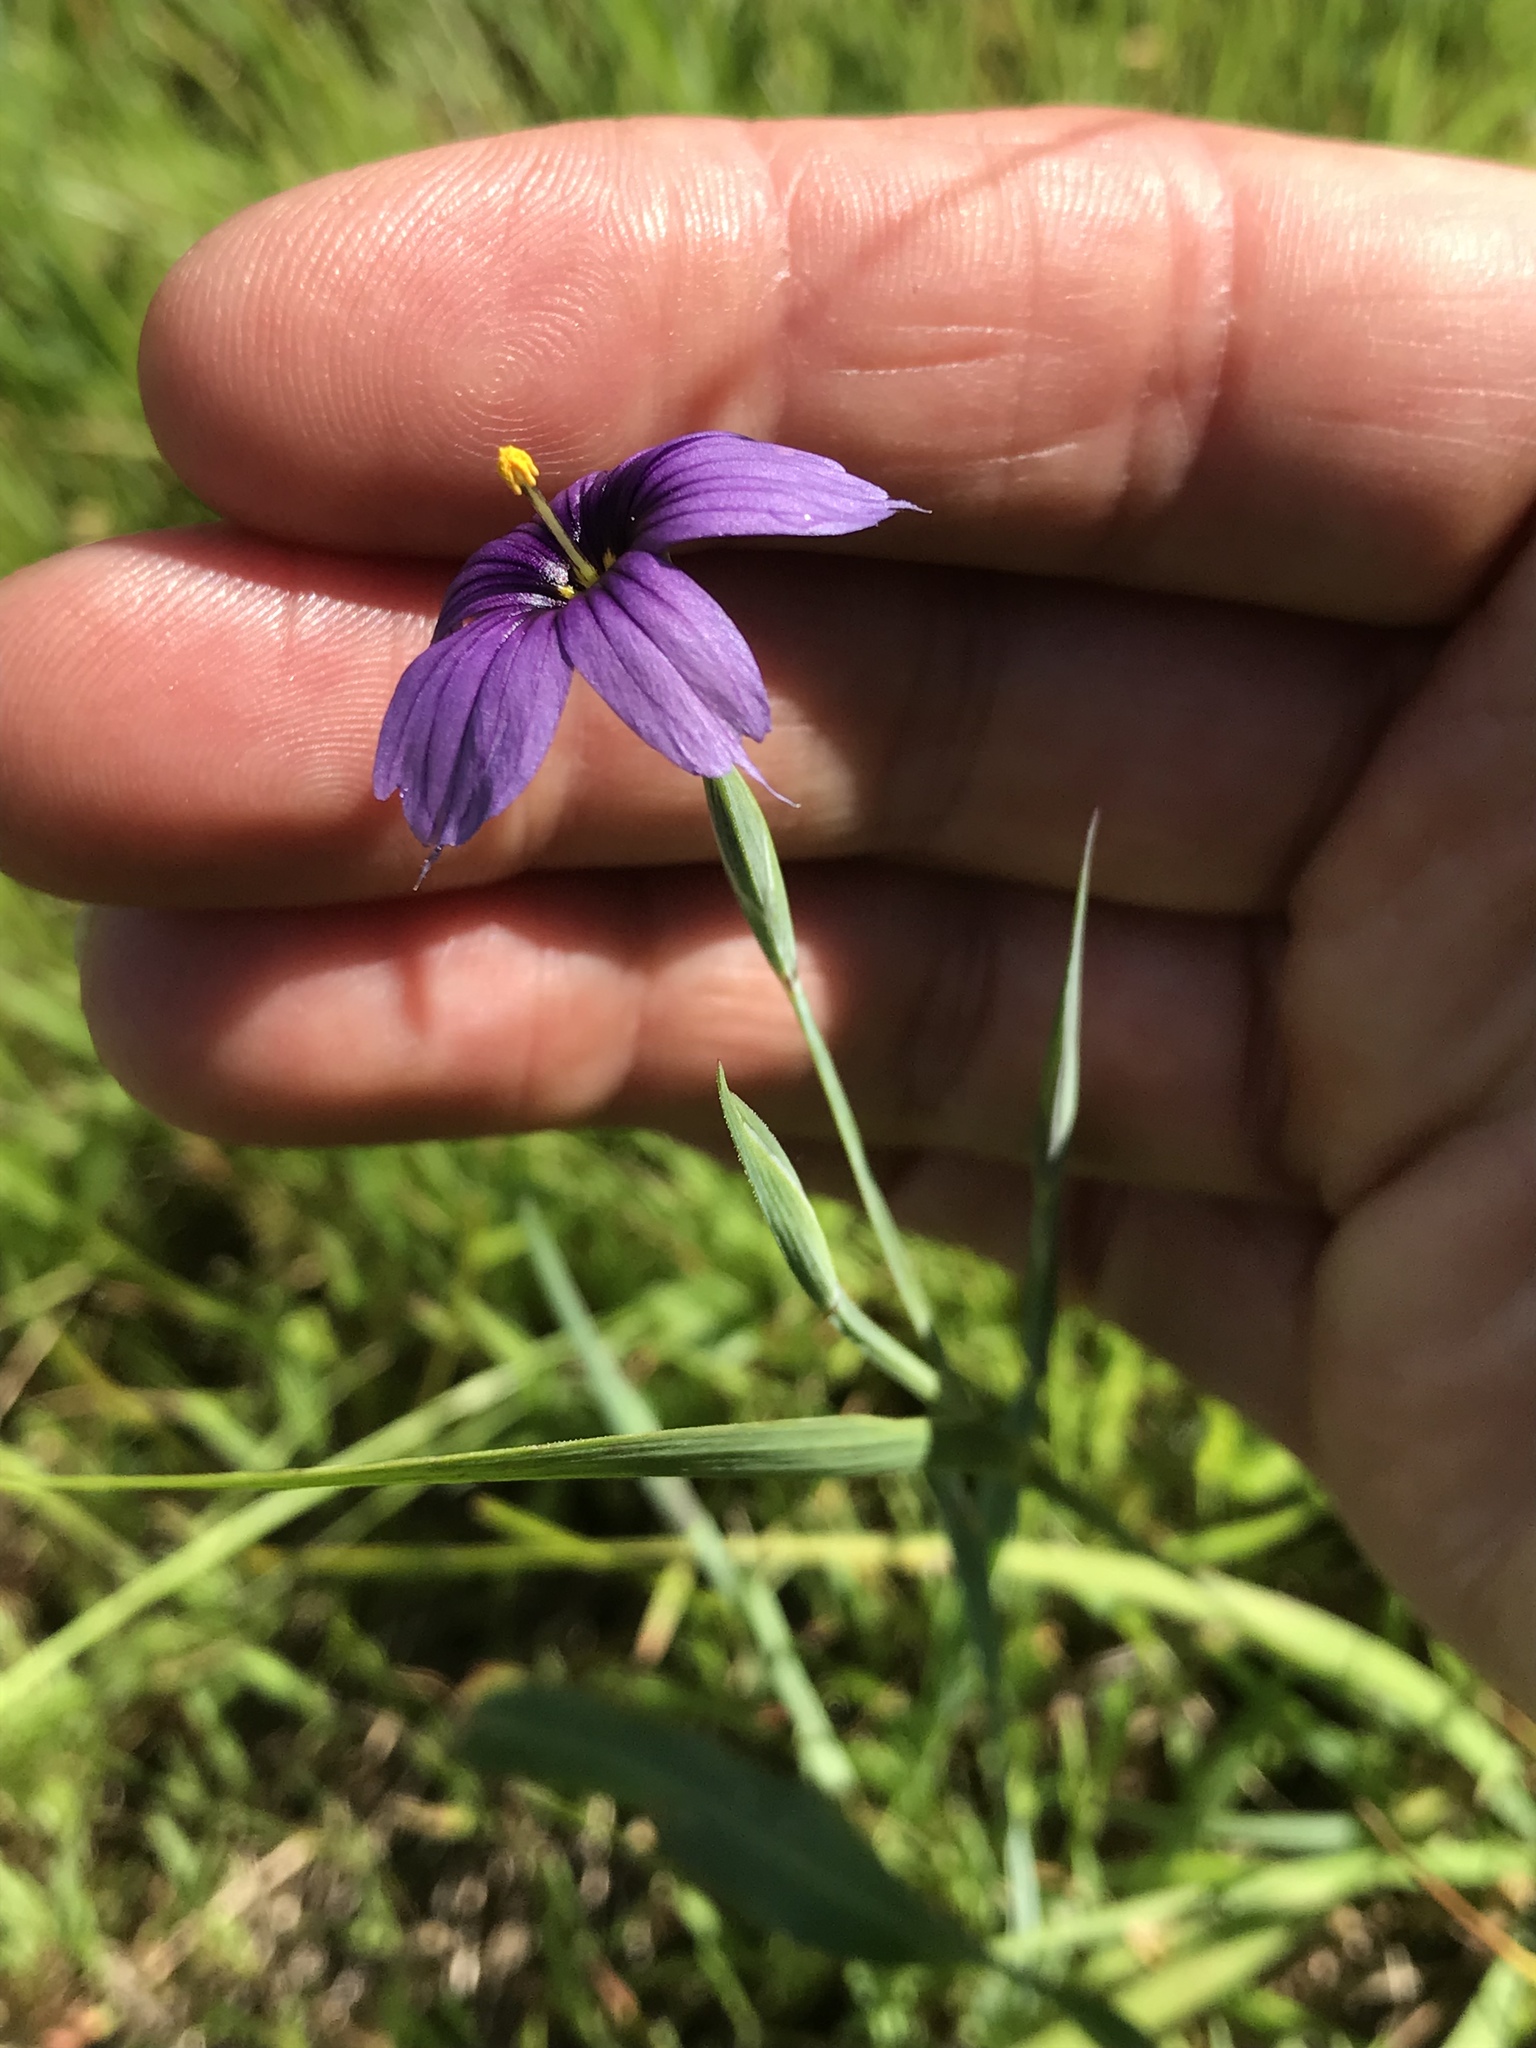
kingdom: Plantae
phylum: Tracheophyta
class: Liliopsida
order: Asparagales
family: Iridaceae
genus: Sisyrinchium
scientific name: Sisyrinchium bellum
